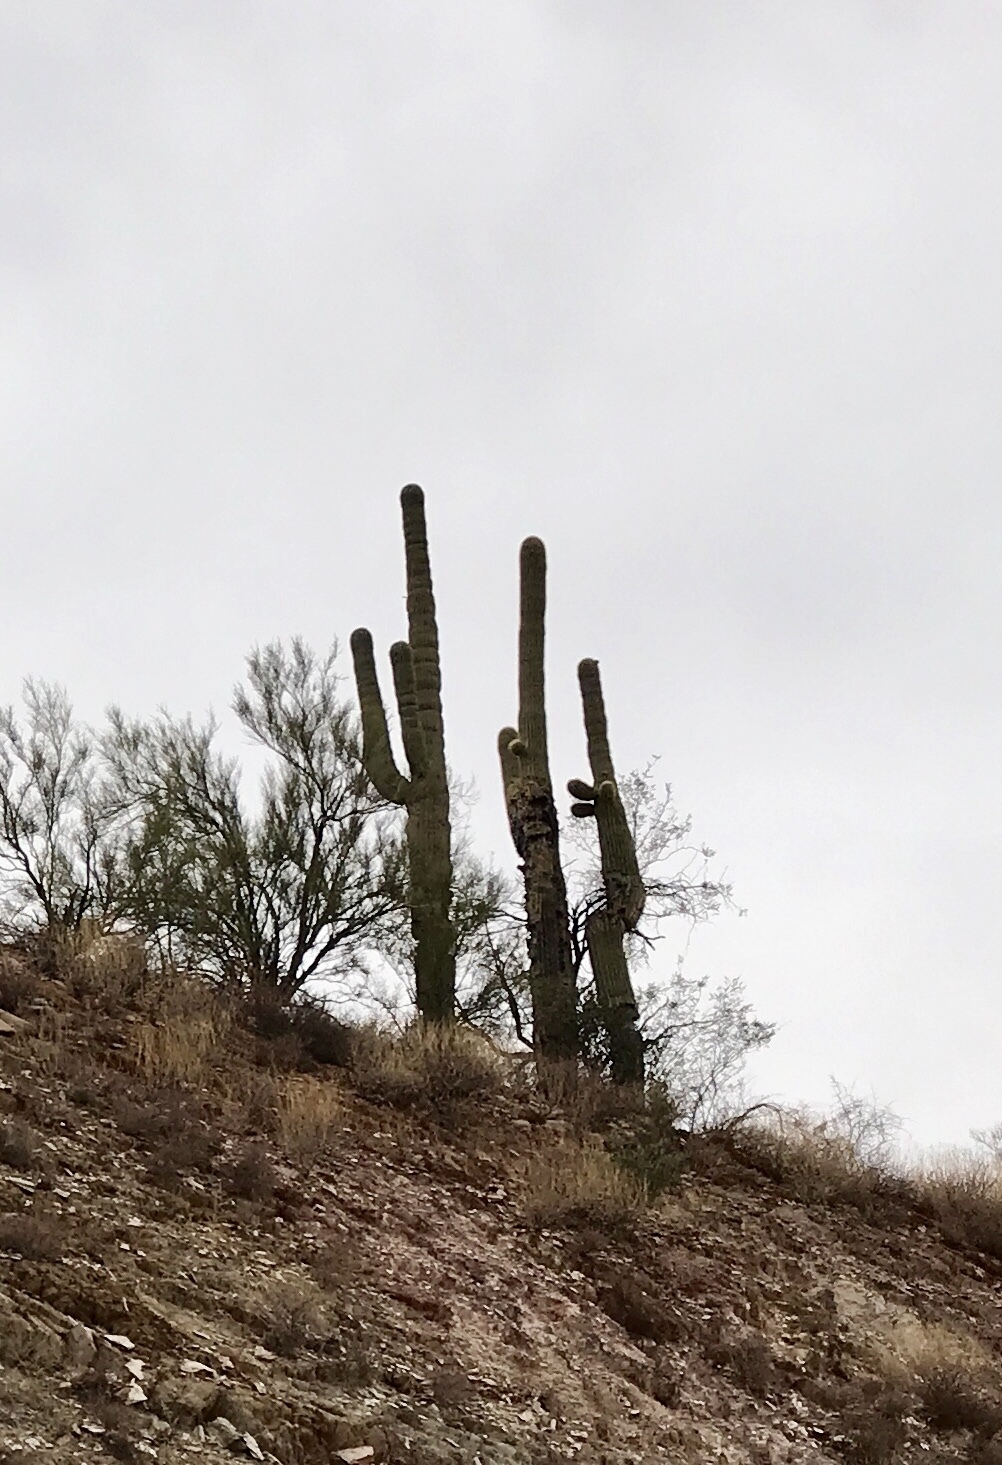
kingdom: Plantae
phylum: Tracheophyta
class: Magnoliopsida
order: Caryophyllales
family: Cactaceae
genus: Carnegiea
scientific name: Carnegiea gigantea
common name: Saguaro
